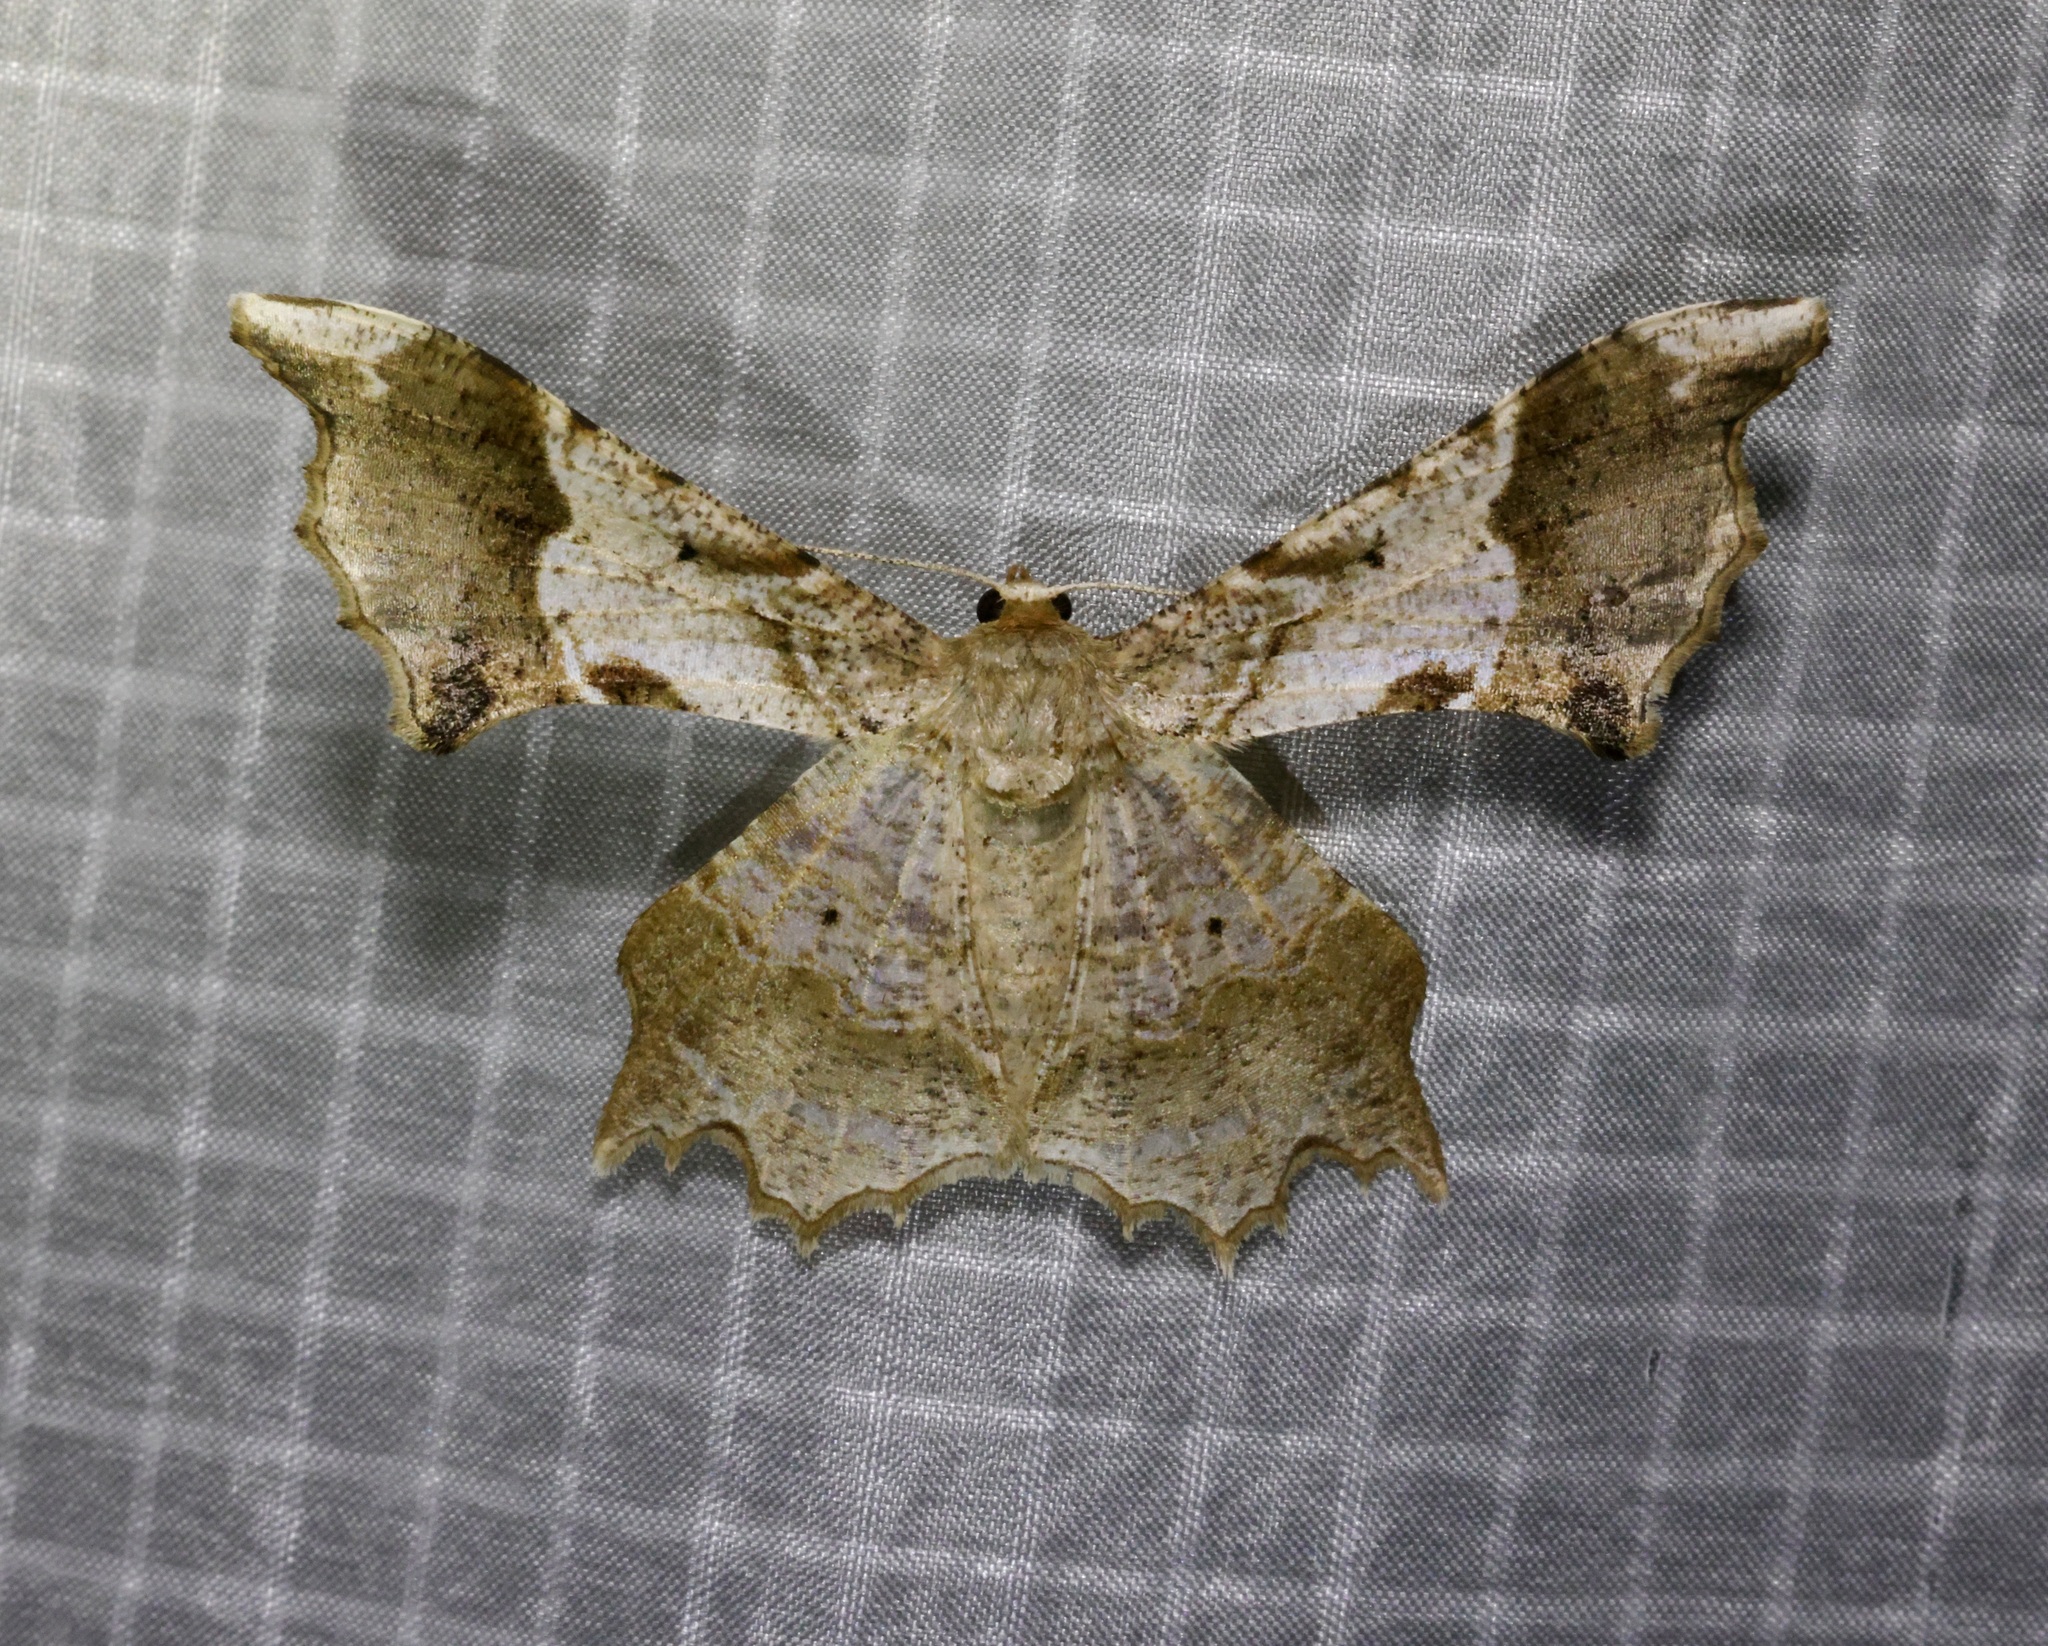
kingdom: Animalia
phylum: Arthropoda
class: Insecta
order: Lepidoptera
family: Geometridae
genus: Krananda
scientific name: Krananda oliveomarginata
